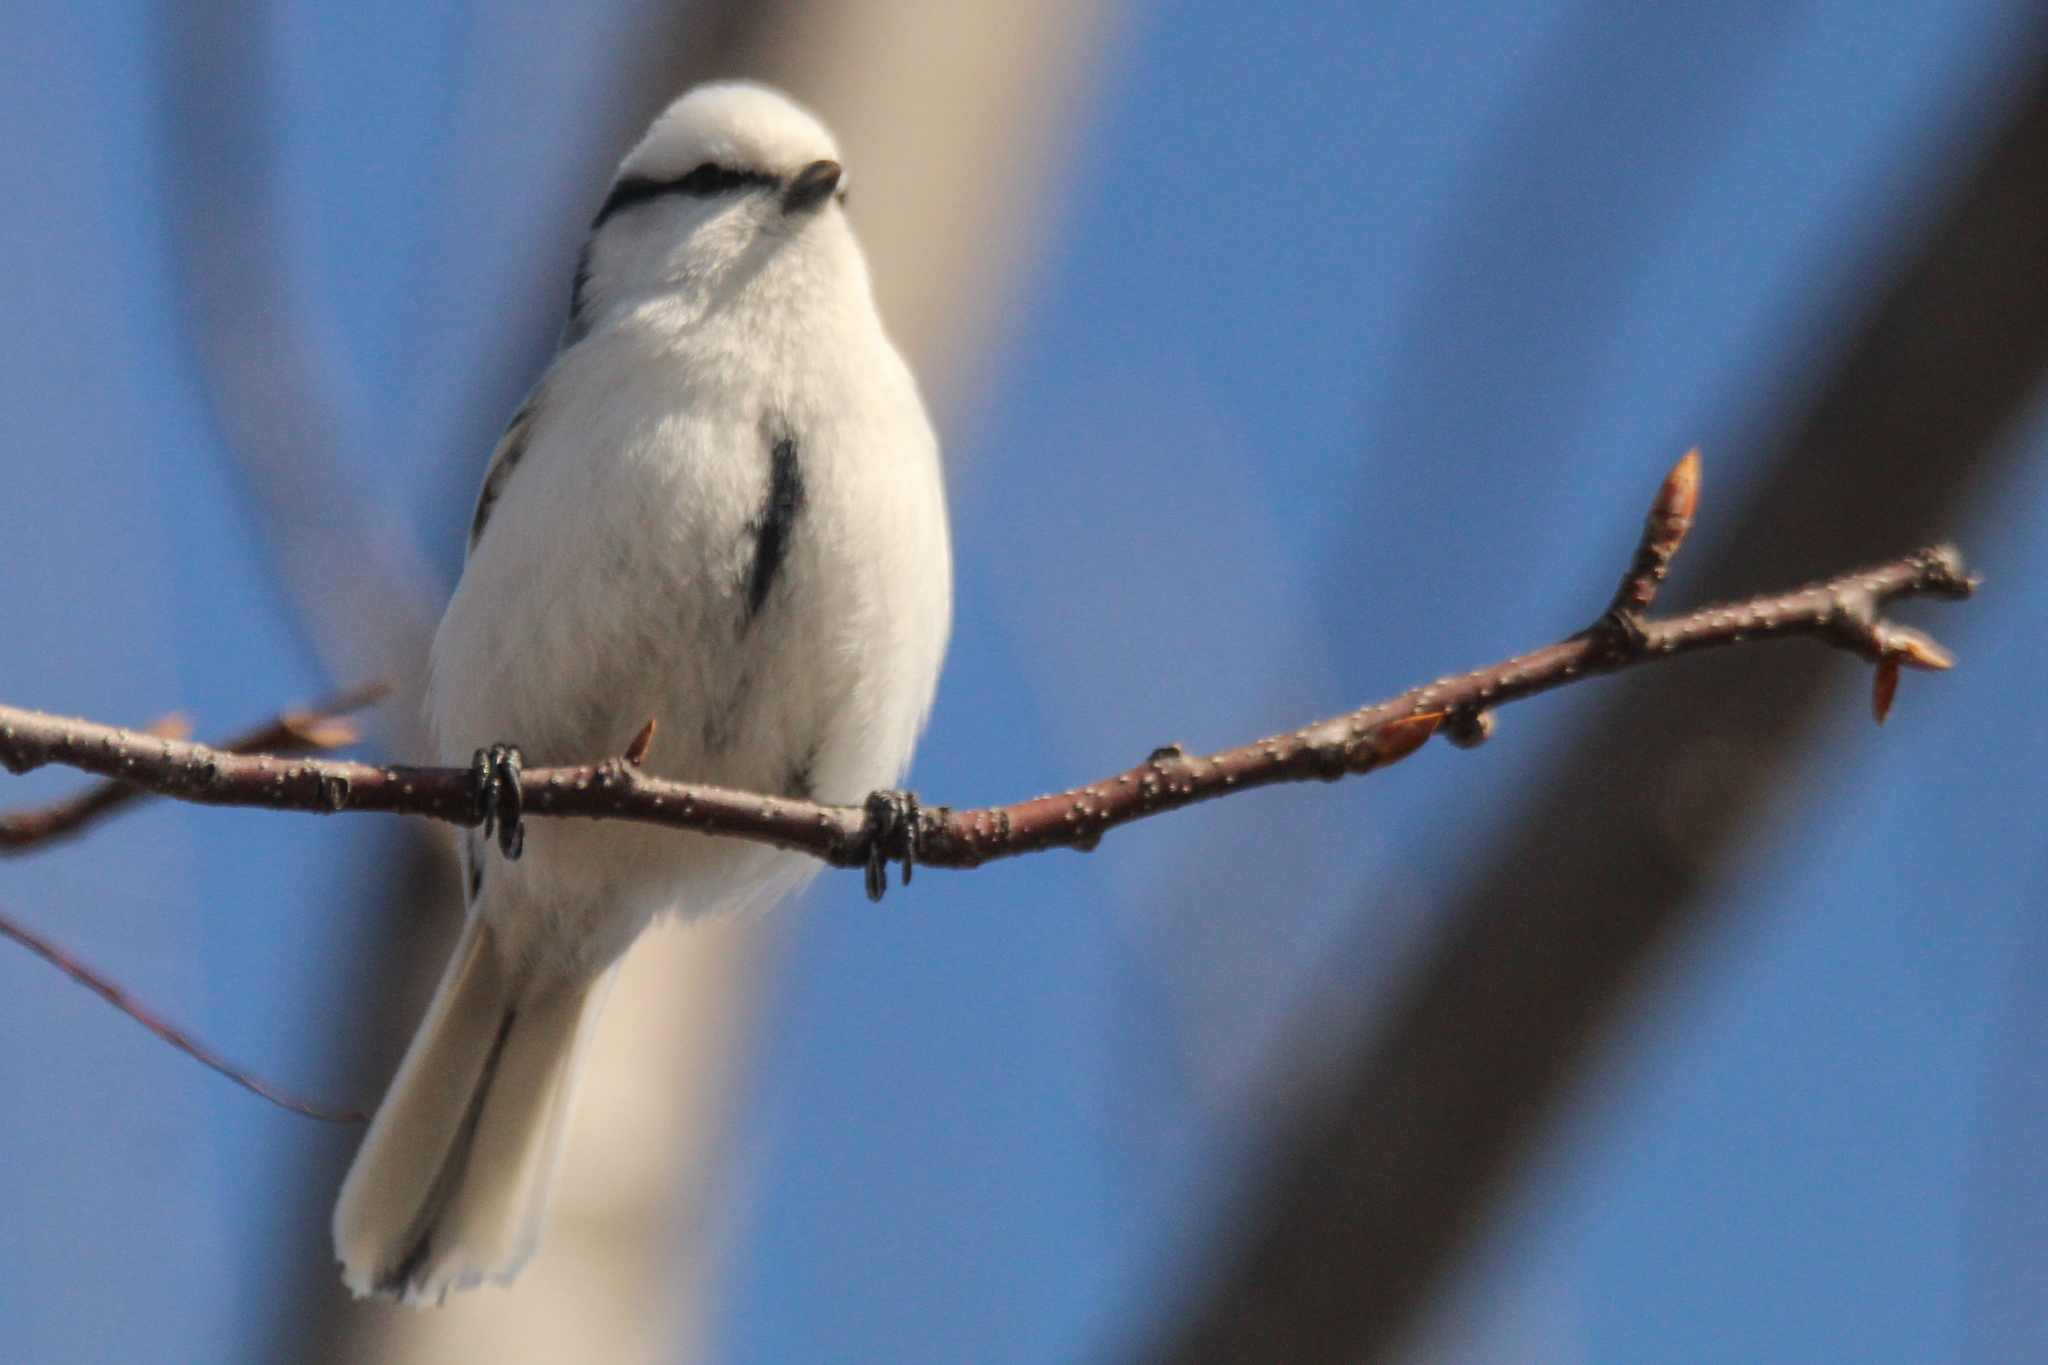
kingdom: Animalia
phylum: Chordata
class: Aves
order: Passeriformes
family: Paridae
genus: Cyanistes
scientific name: Cyanistes cyanus
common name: Azure tit
